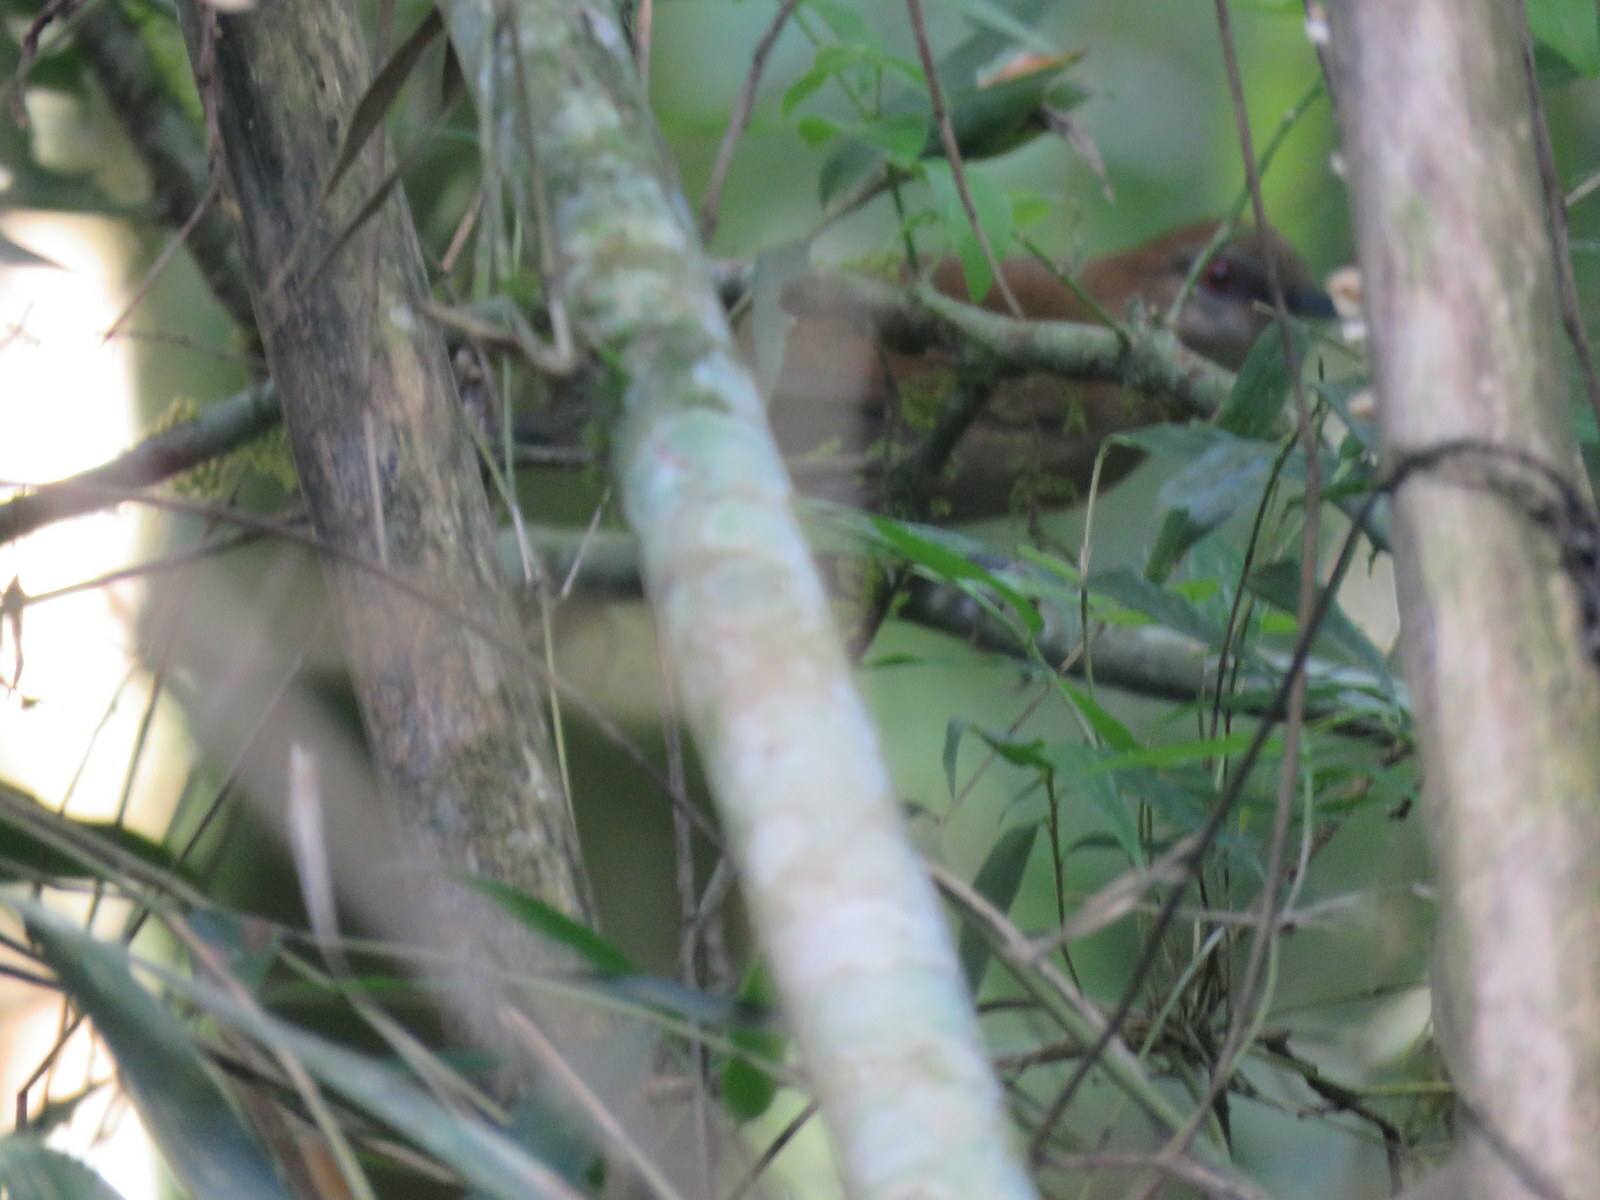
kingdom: Animalia
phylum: Chordata
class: Aves
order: Passeriformes
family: Thamnophilidae
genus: Pyriglena
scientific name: Pyriglena leucoptera
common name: White-shouldered fire-eye
